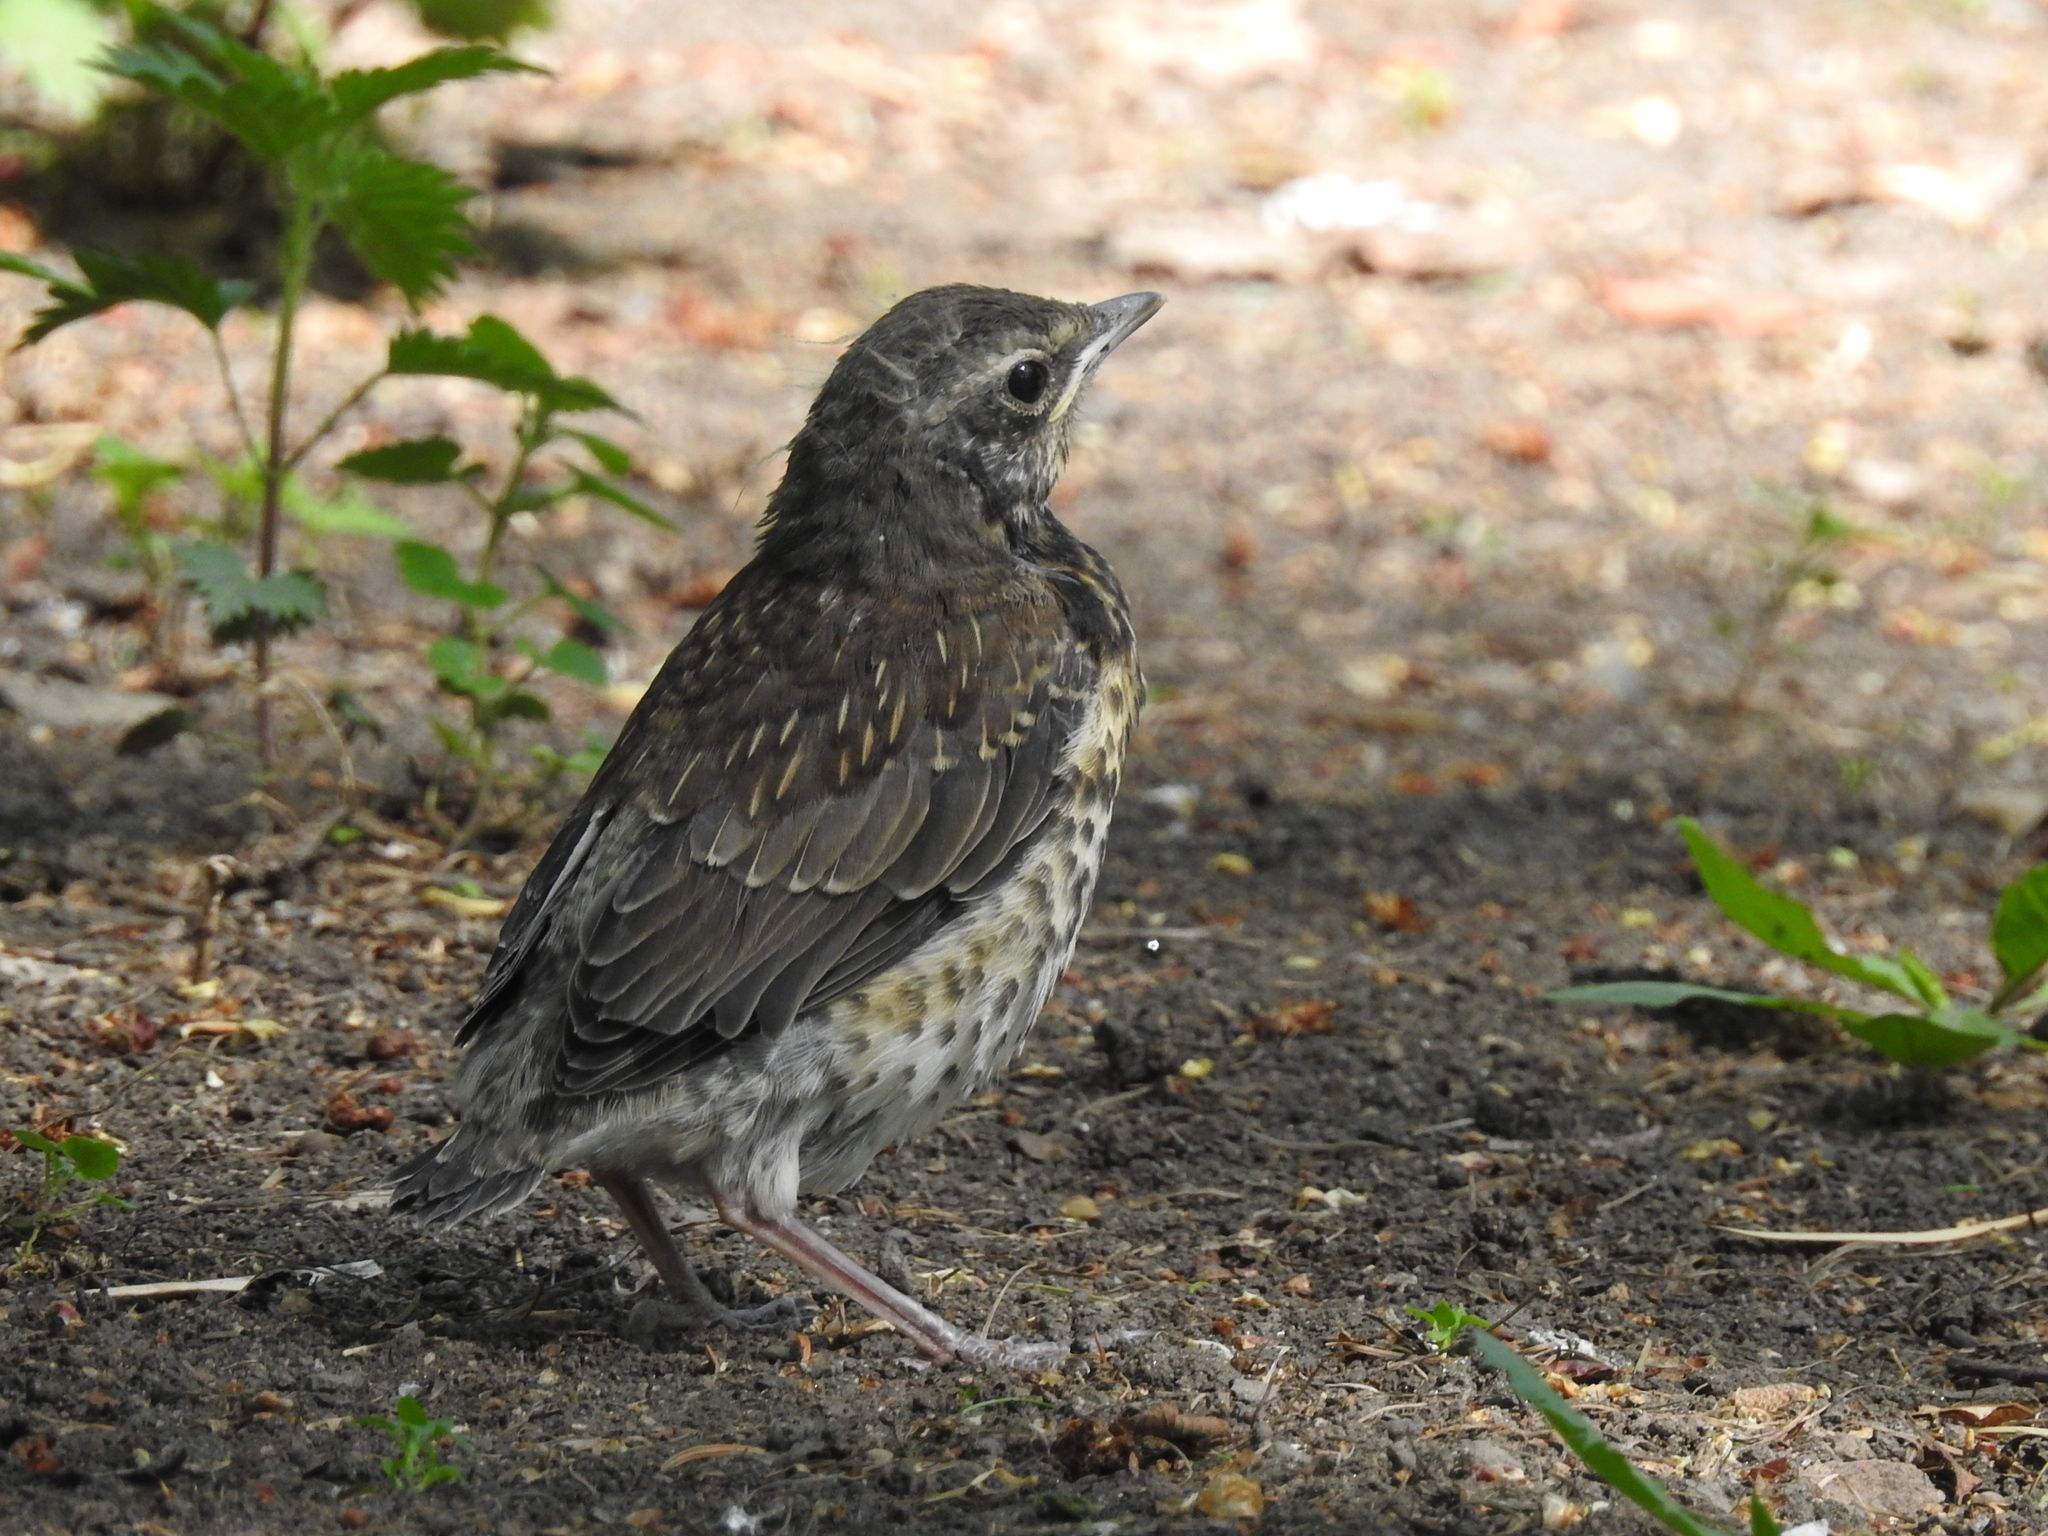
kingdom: Animalia
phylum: Chordata
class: Aves
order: Passeriformes
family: Turdidae
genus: Turdus
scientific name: Turdus pilaris
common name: Fieldfare
